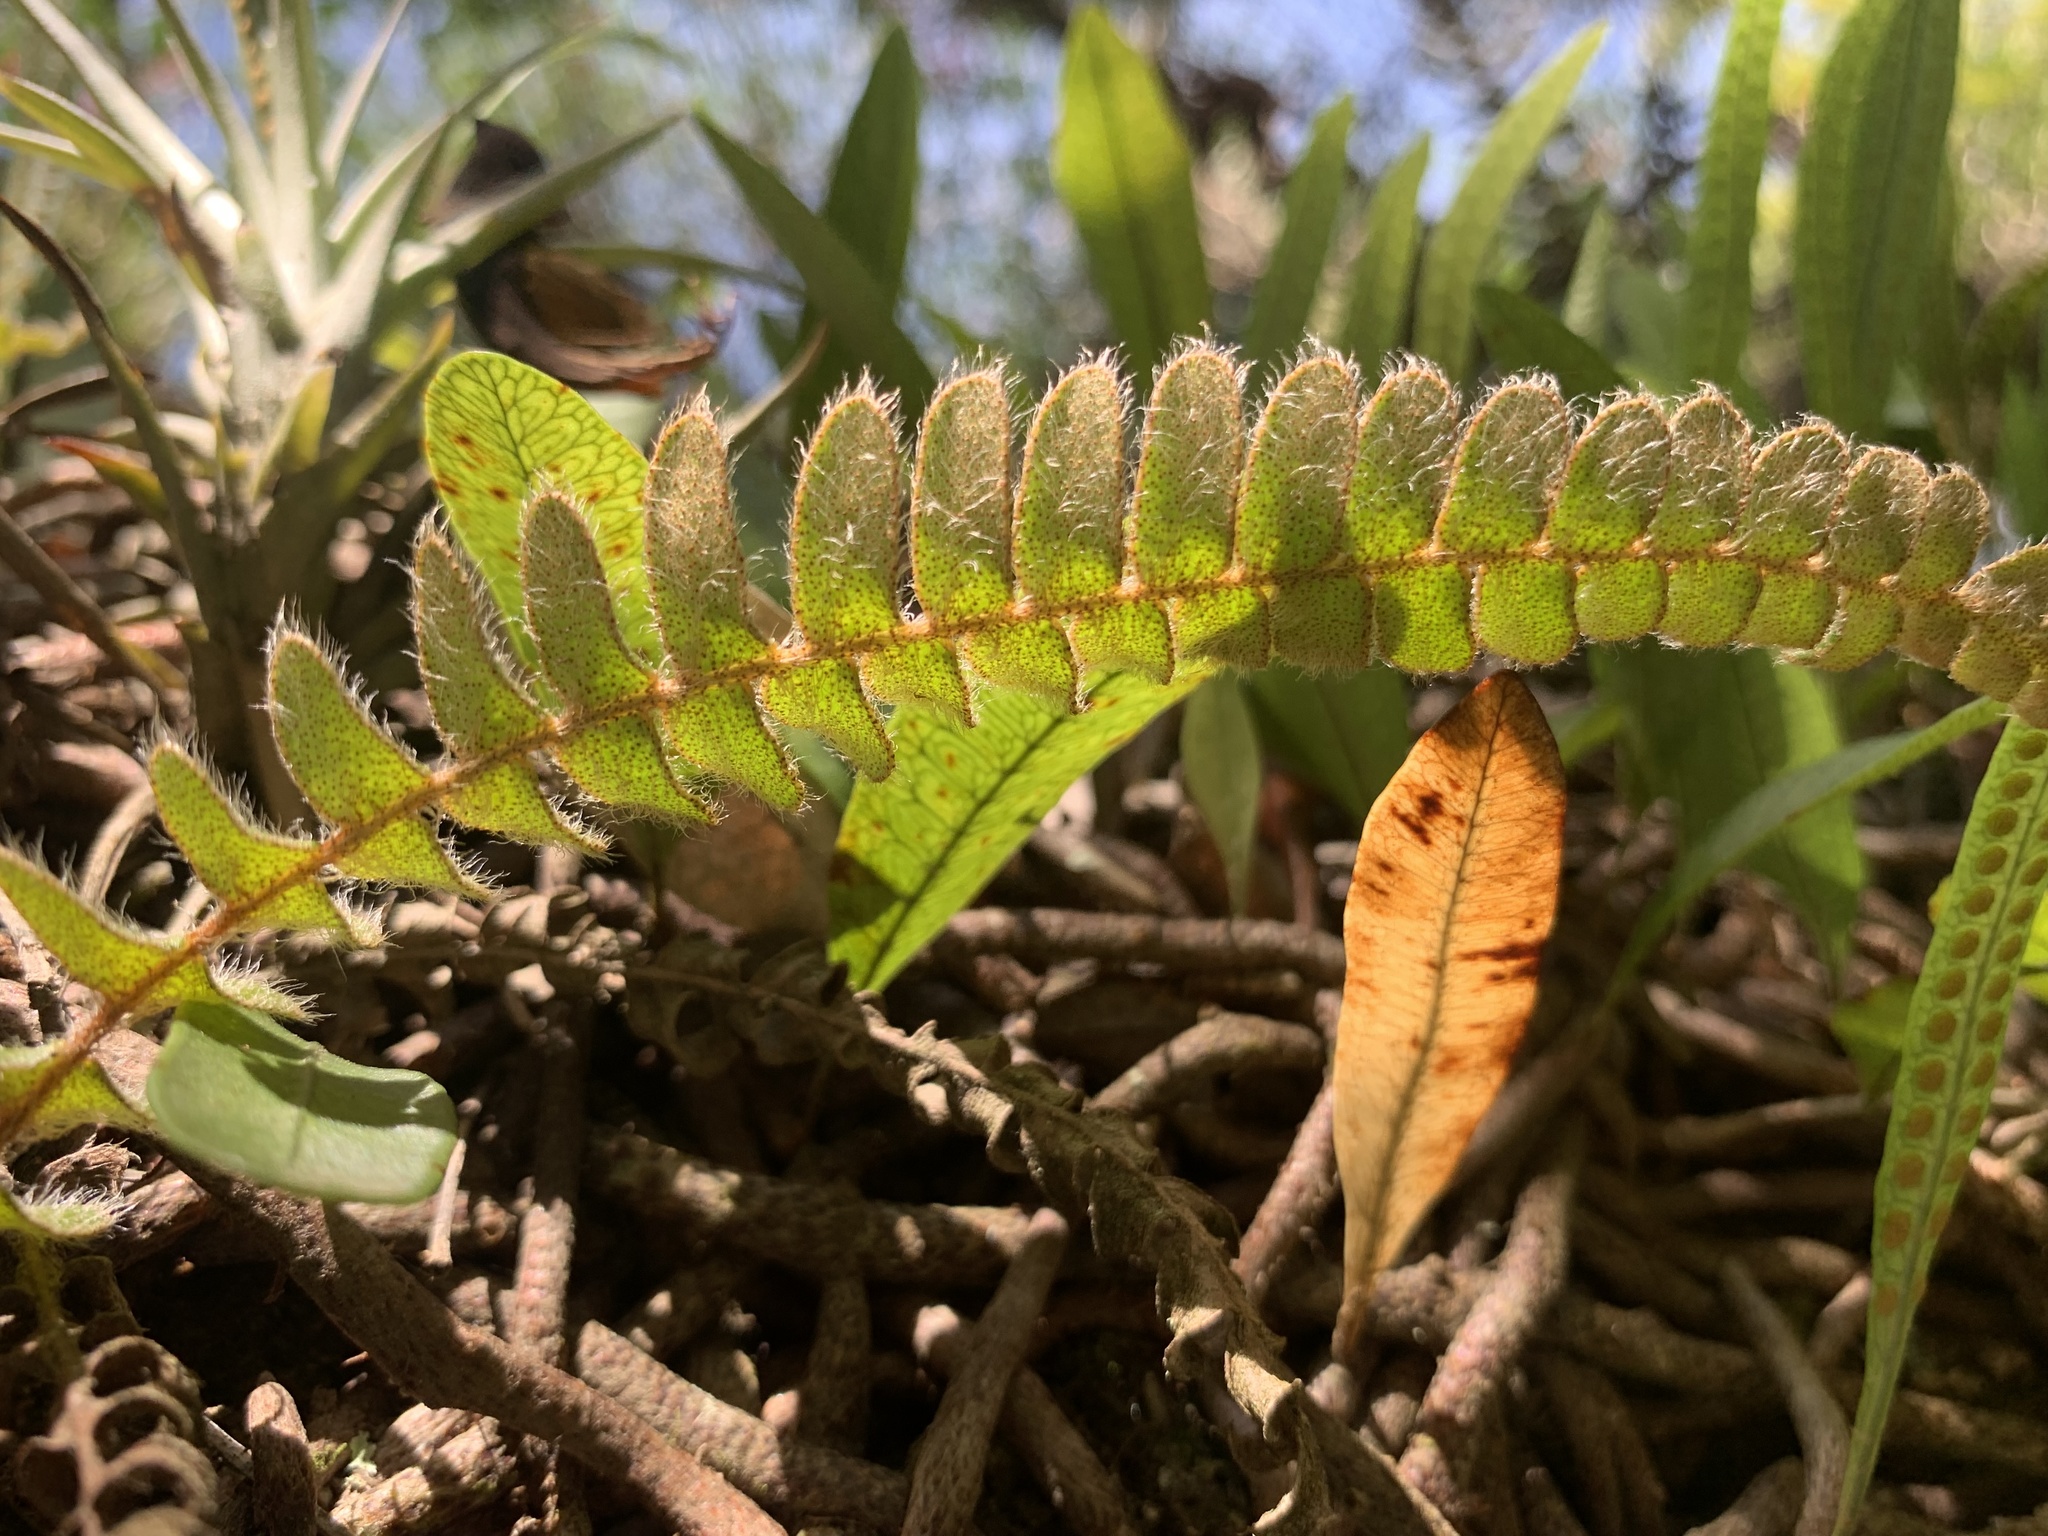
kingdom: Plantae
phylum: Tracheophyta
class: Polypodiopsida
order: Polypodiales
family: Polypodiaceae
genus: Pleopeltis
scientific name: Pleopeltis lepidopteris
